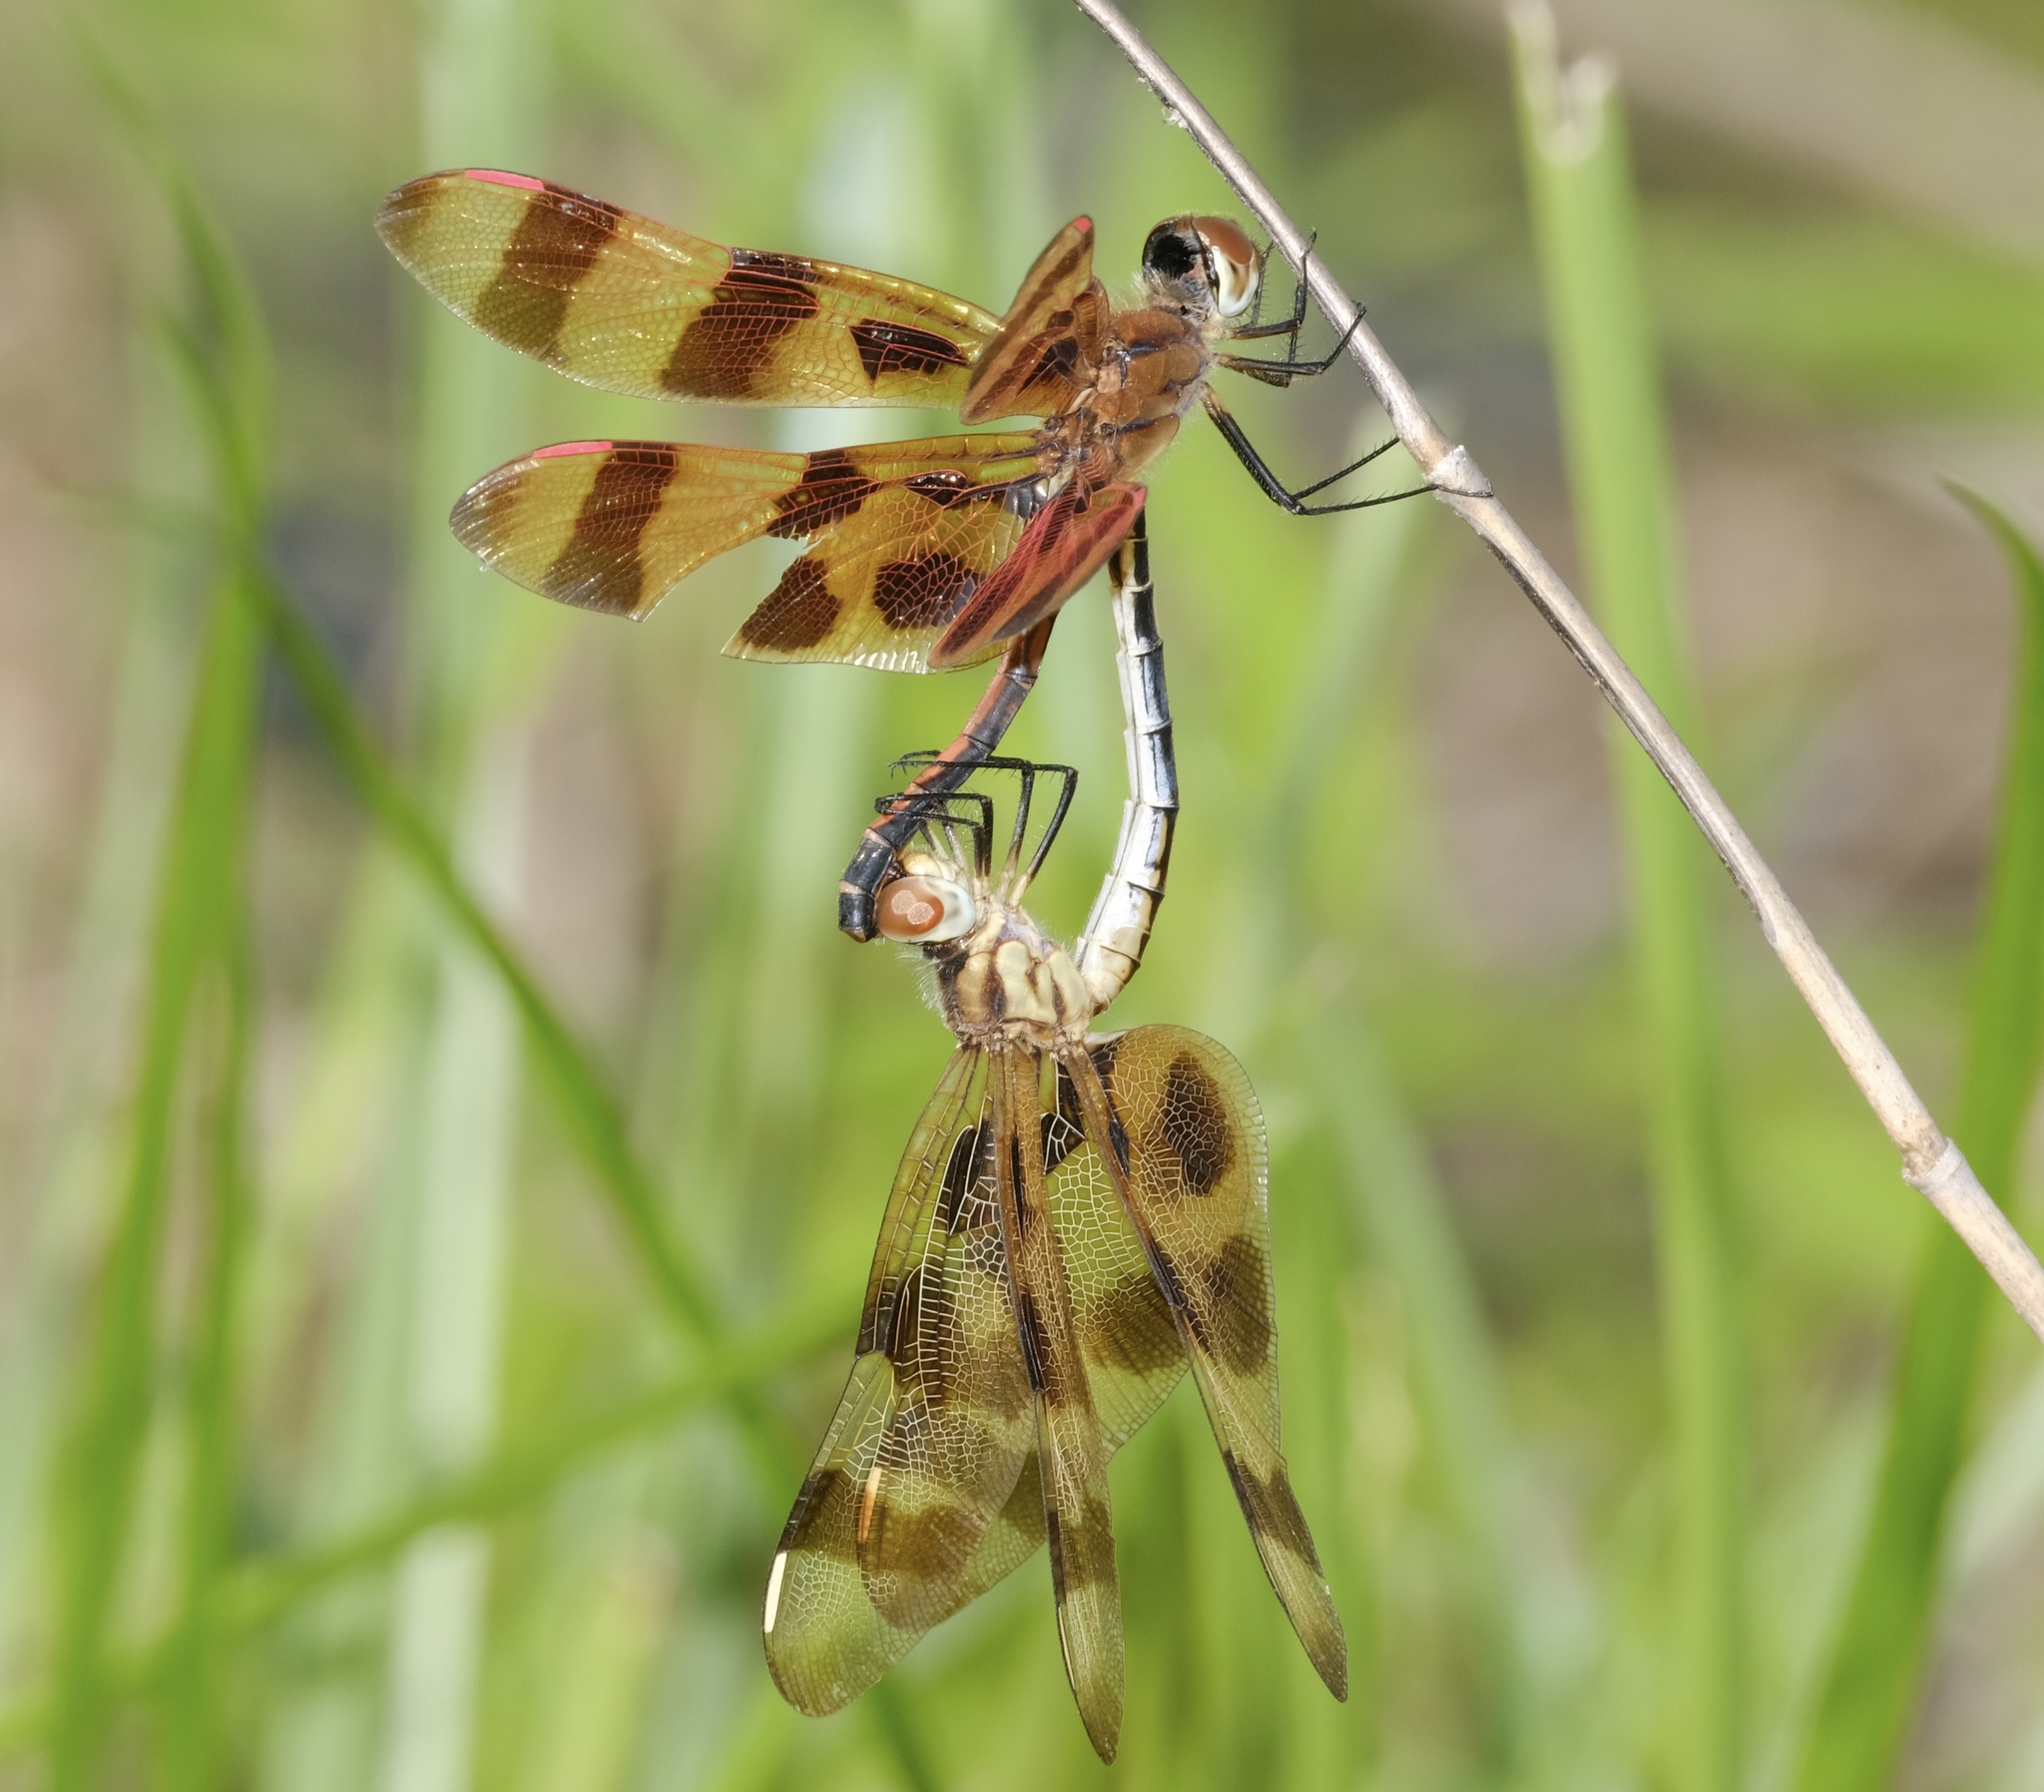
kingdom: Animalia
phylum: Arthropoda
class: Insecta
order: Odonata
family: Libellulidae
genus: Celithemis
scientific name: Celithemis eponina
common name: Halloween pennant
